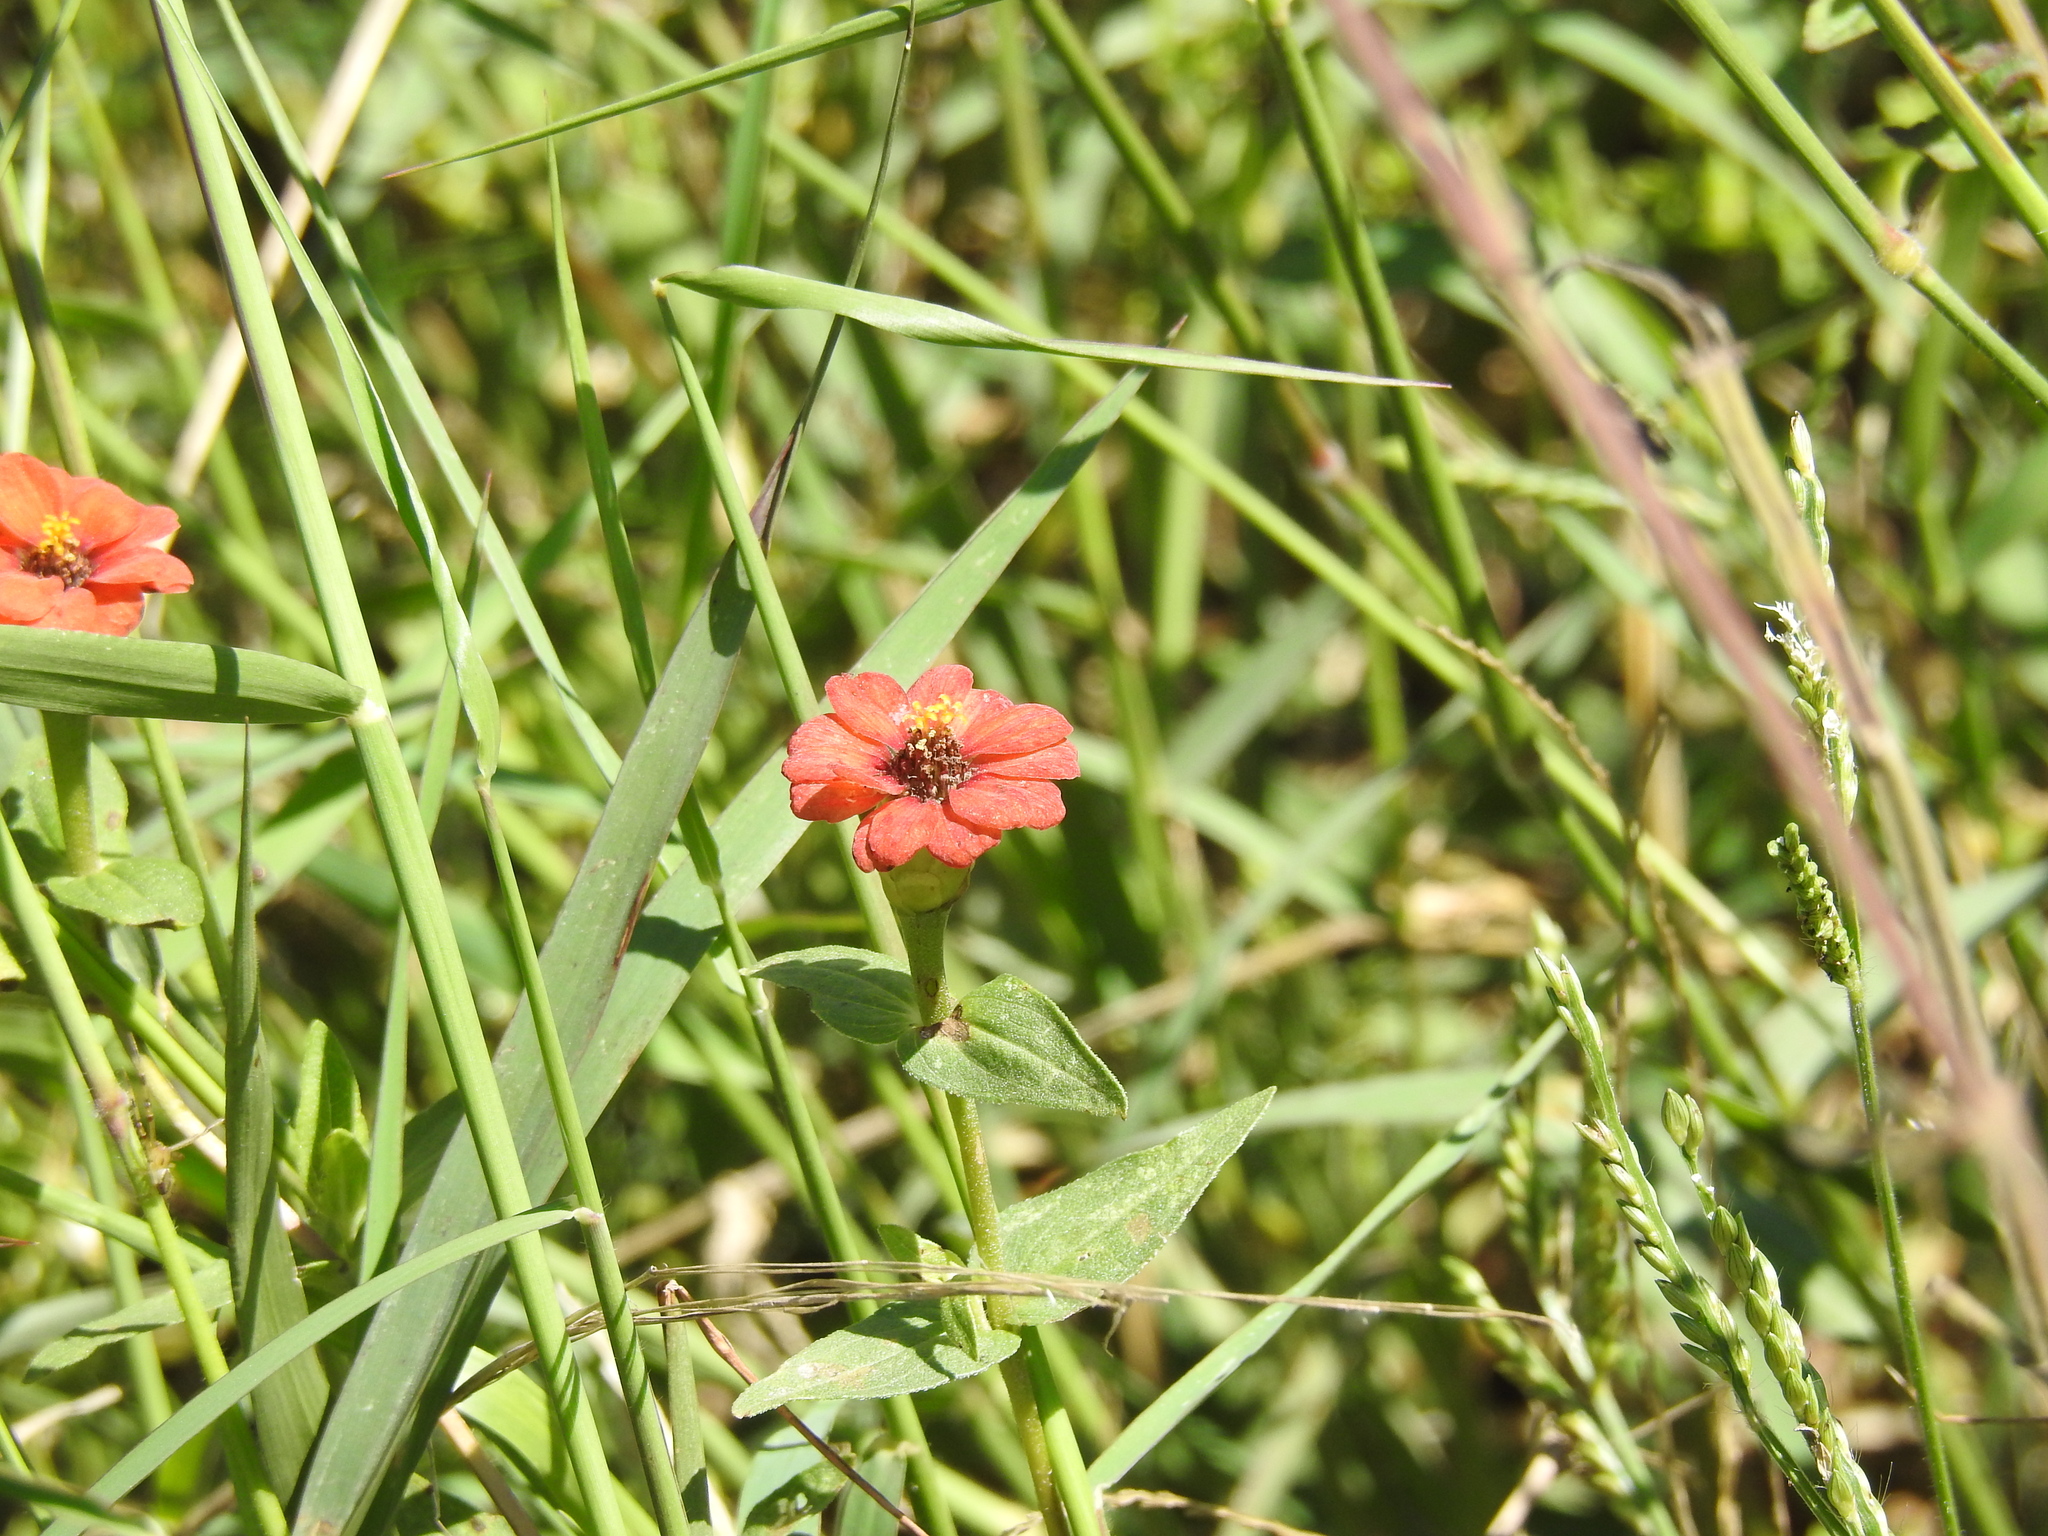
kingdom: Plantae
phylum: Tracheophyta
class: Magnoliopsida
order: Asterales
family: Asteraceae
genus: Zinnia
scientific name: Zinnia peruviana
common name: Peruvian zinnia
